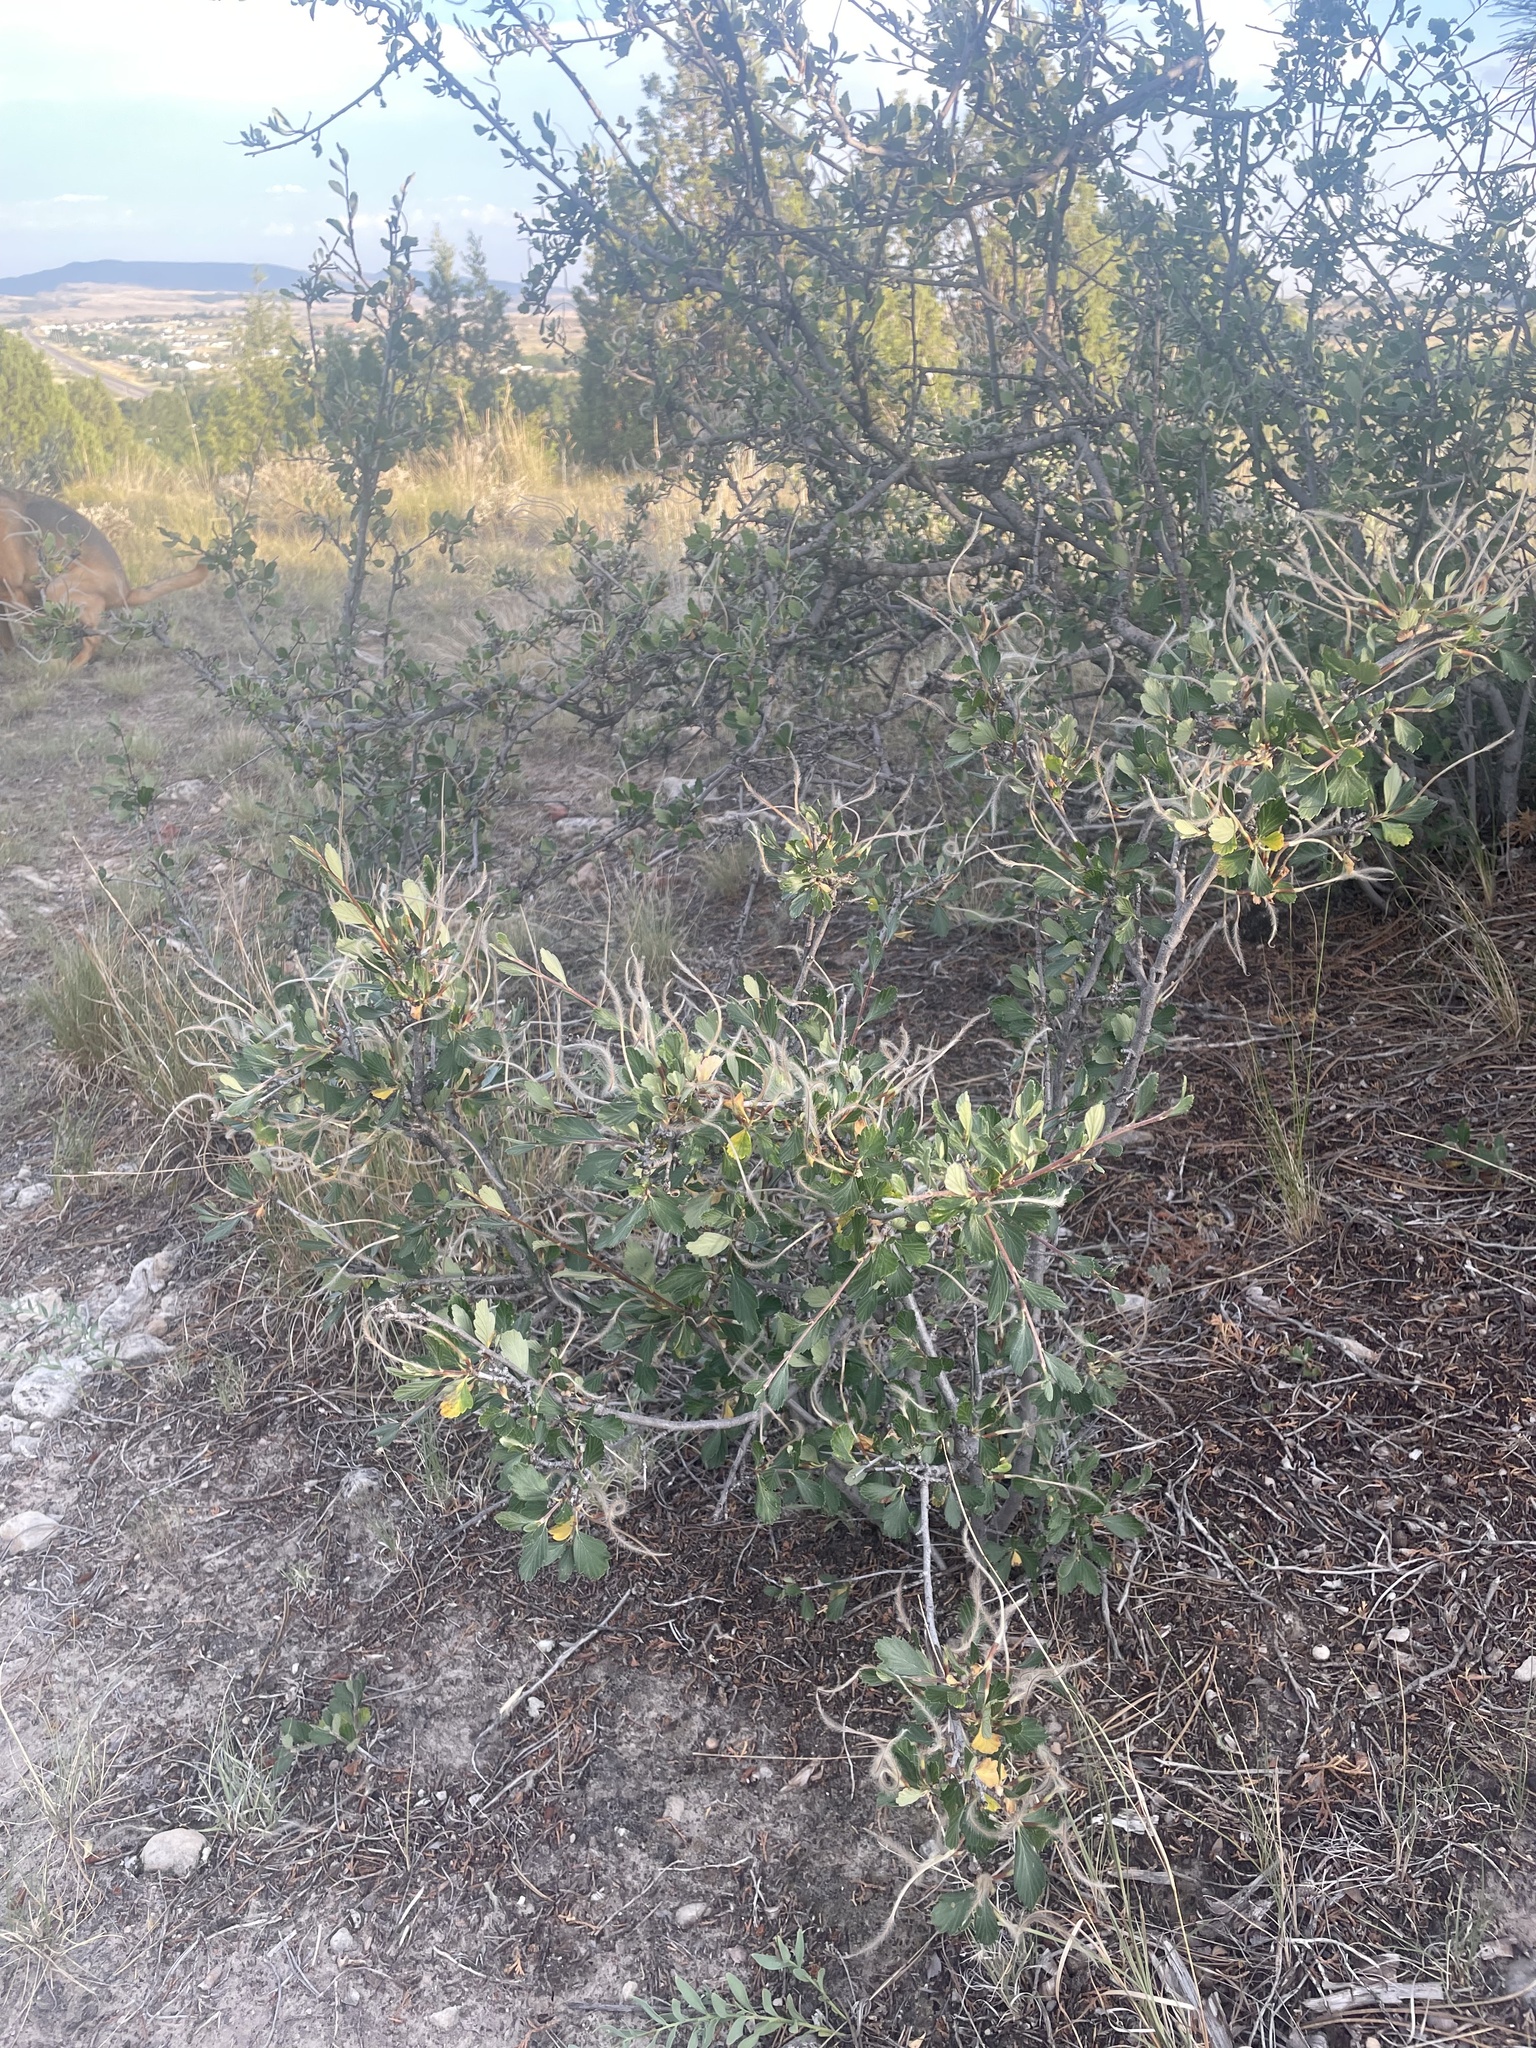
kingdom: Plantae
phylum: Tracheophyta
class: Magnoliopsida
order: Rosales
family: Rosaceae
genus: Cercocarpus
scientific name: Cercocarpus montanus
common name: Alder-leaf cercocarpus
